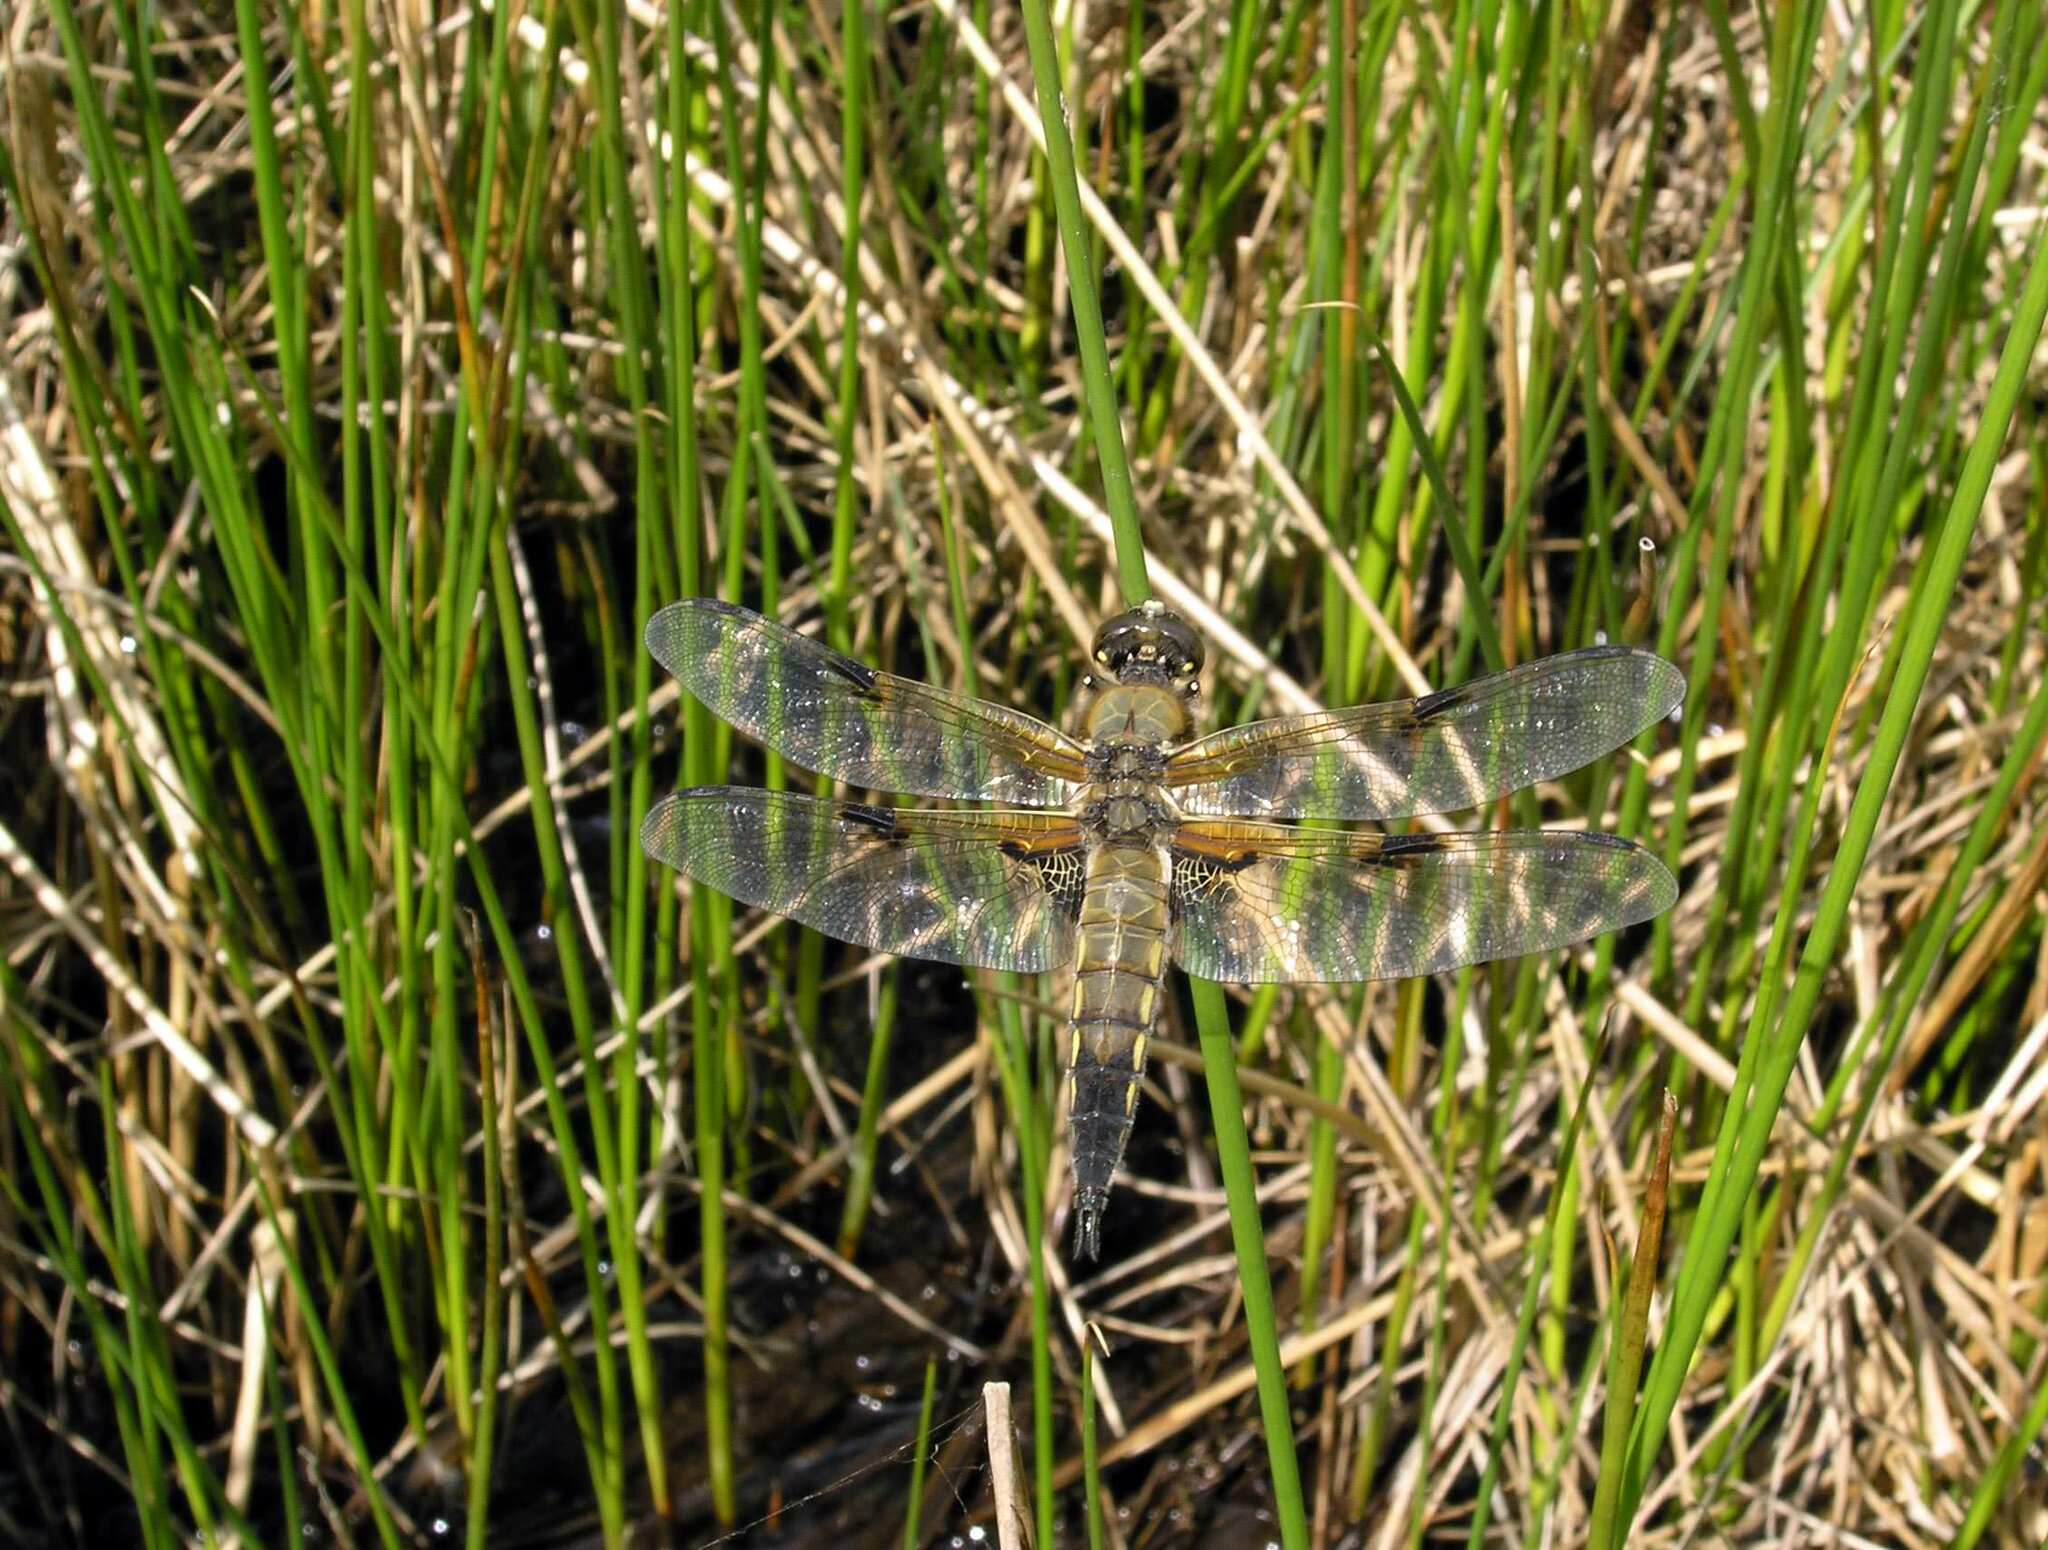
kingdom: Animalia
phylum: Arthropoda
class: Insecta
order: Odonata
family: Libellulidae
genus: Libellula
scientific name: Libellula quadrimaculata
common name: Four-spotted chaser
